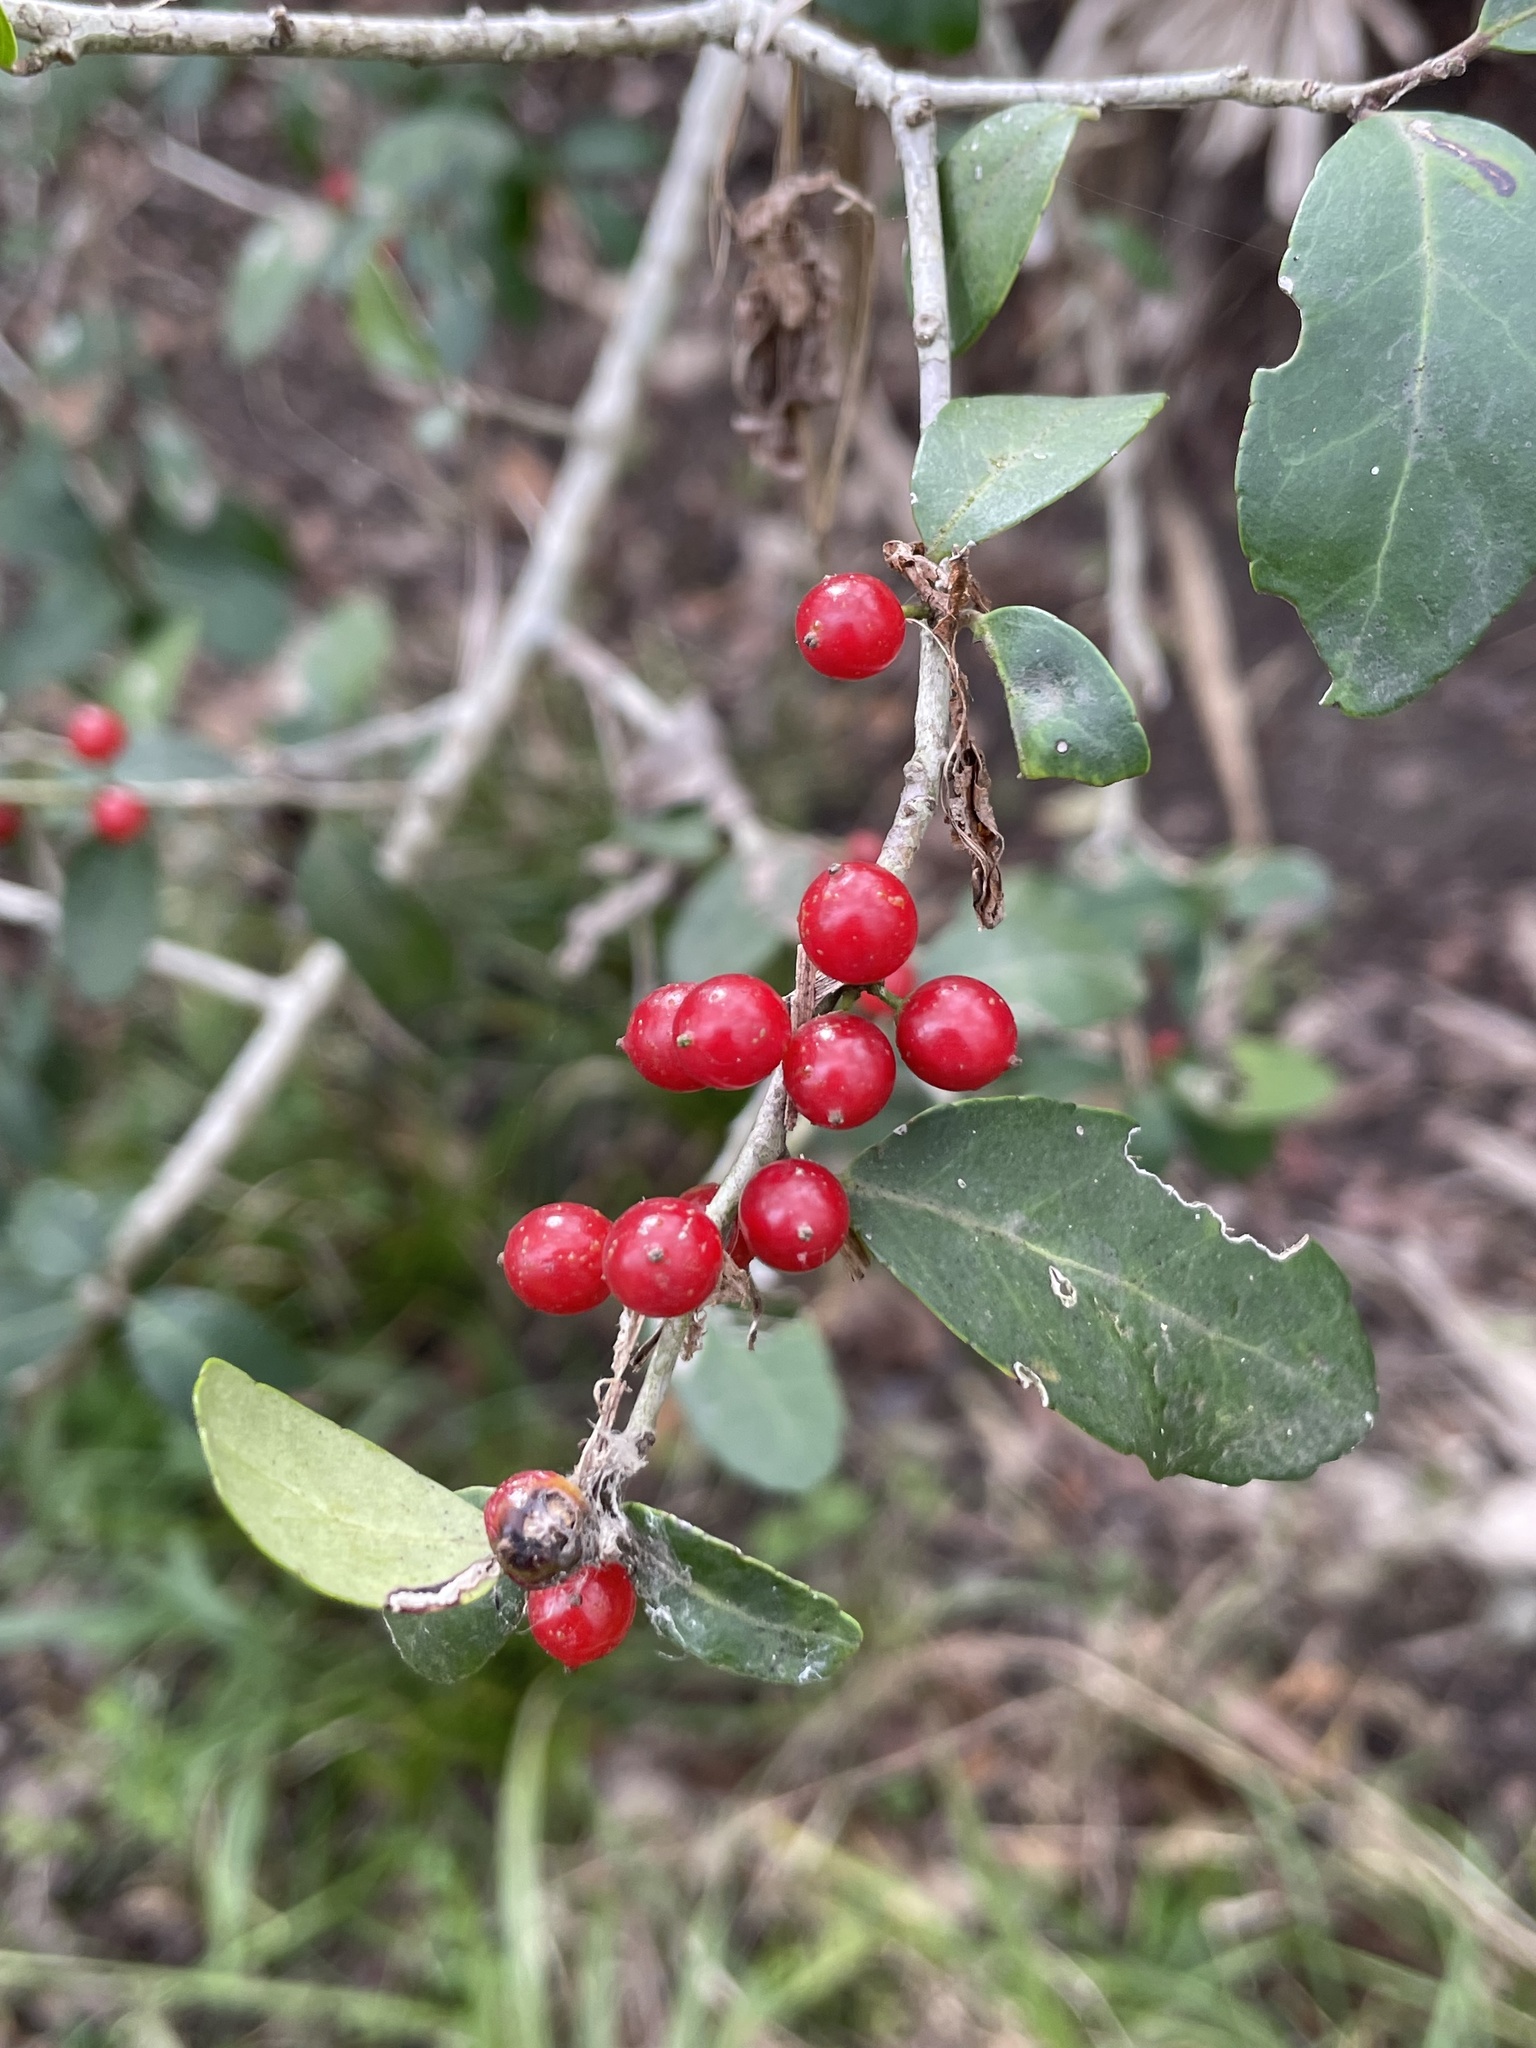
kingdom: Plantae
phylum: Tracheophyta
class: Magnoliopsida
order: Aquifoliales
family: Aquifoliaceae
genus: Ilex
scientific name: Ilex vomitoria
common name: Yaupon holly
